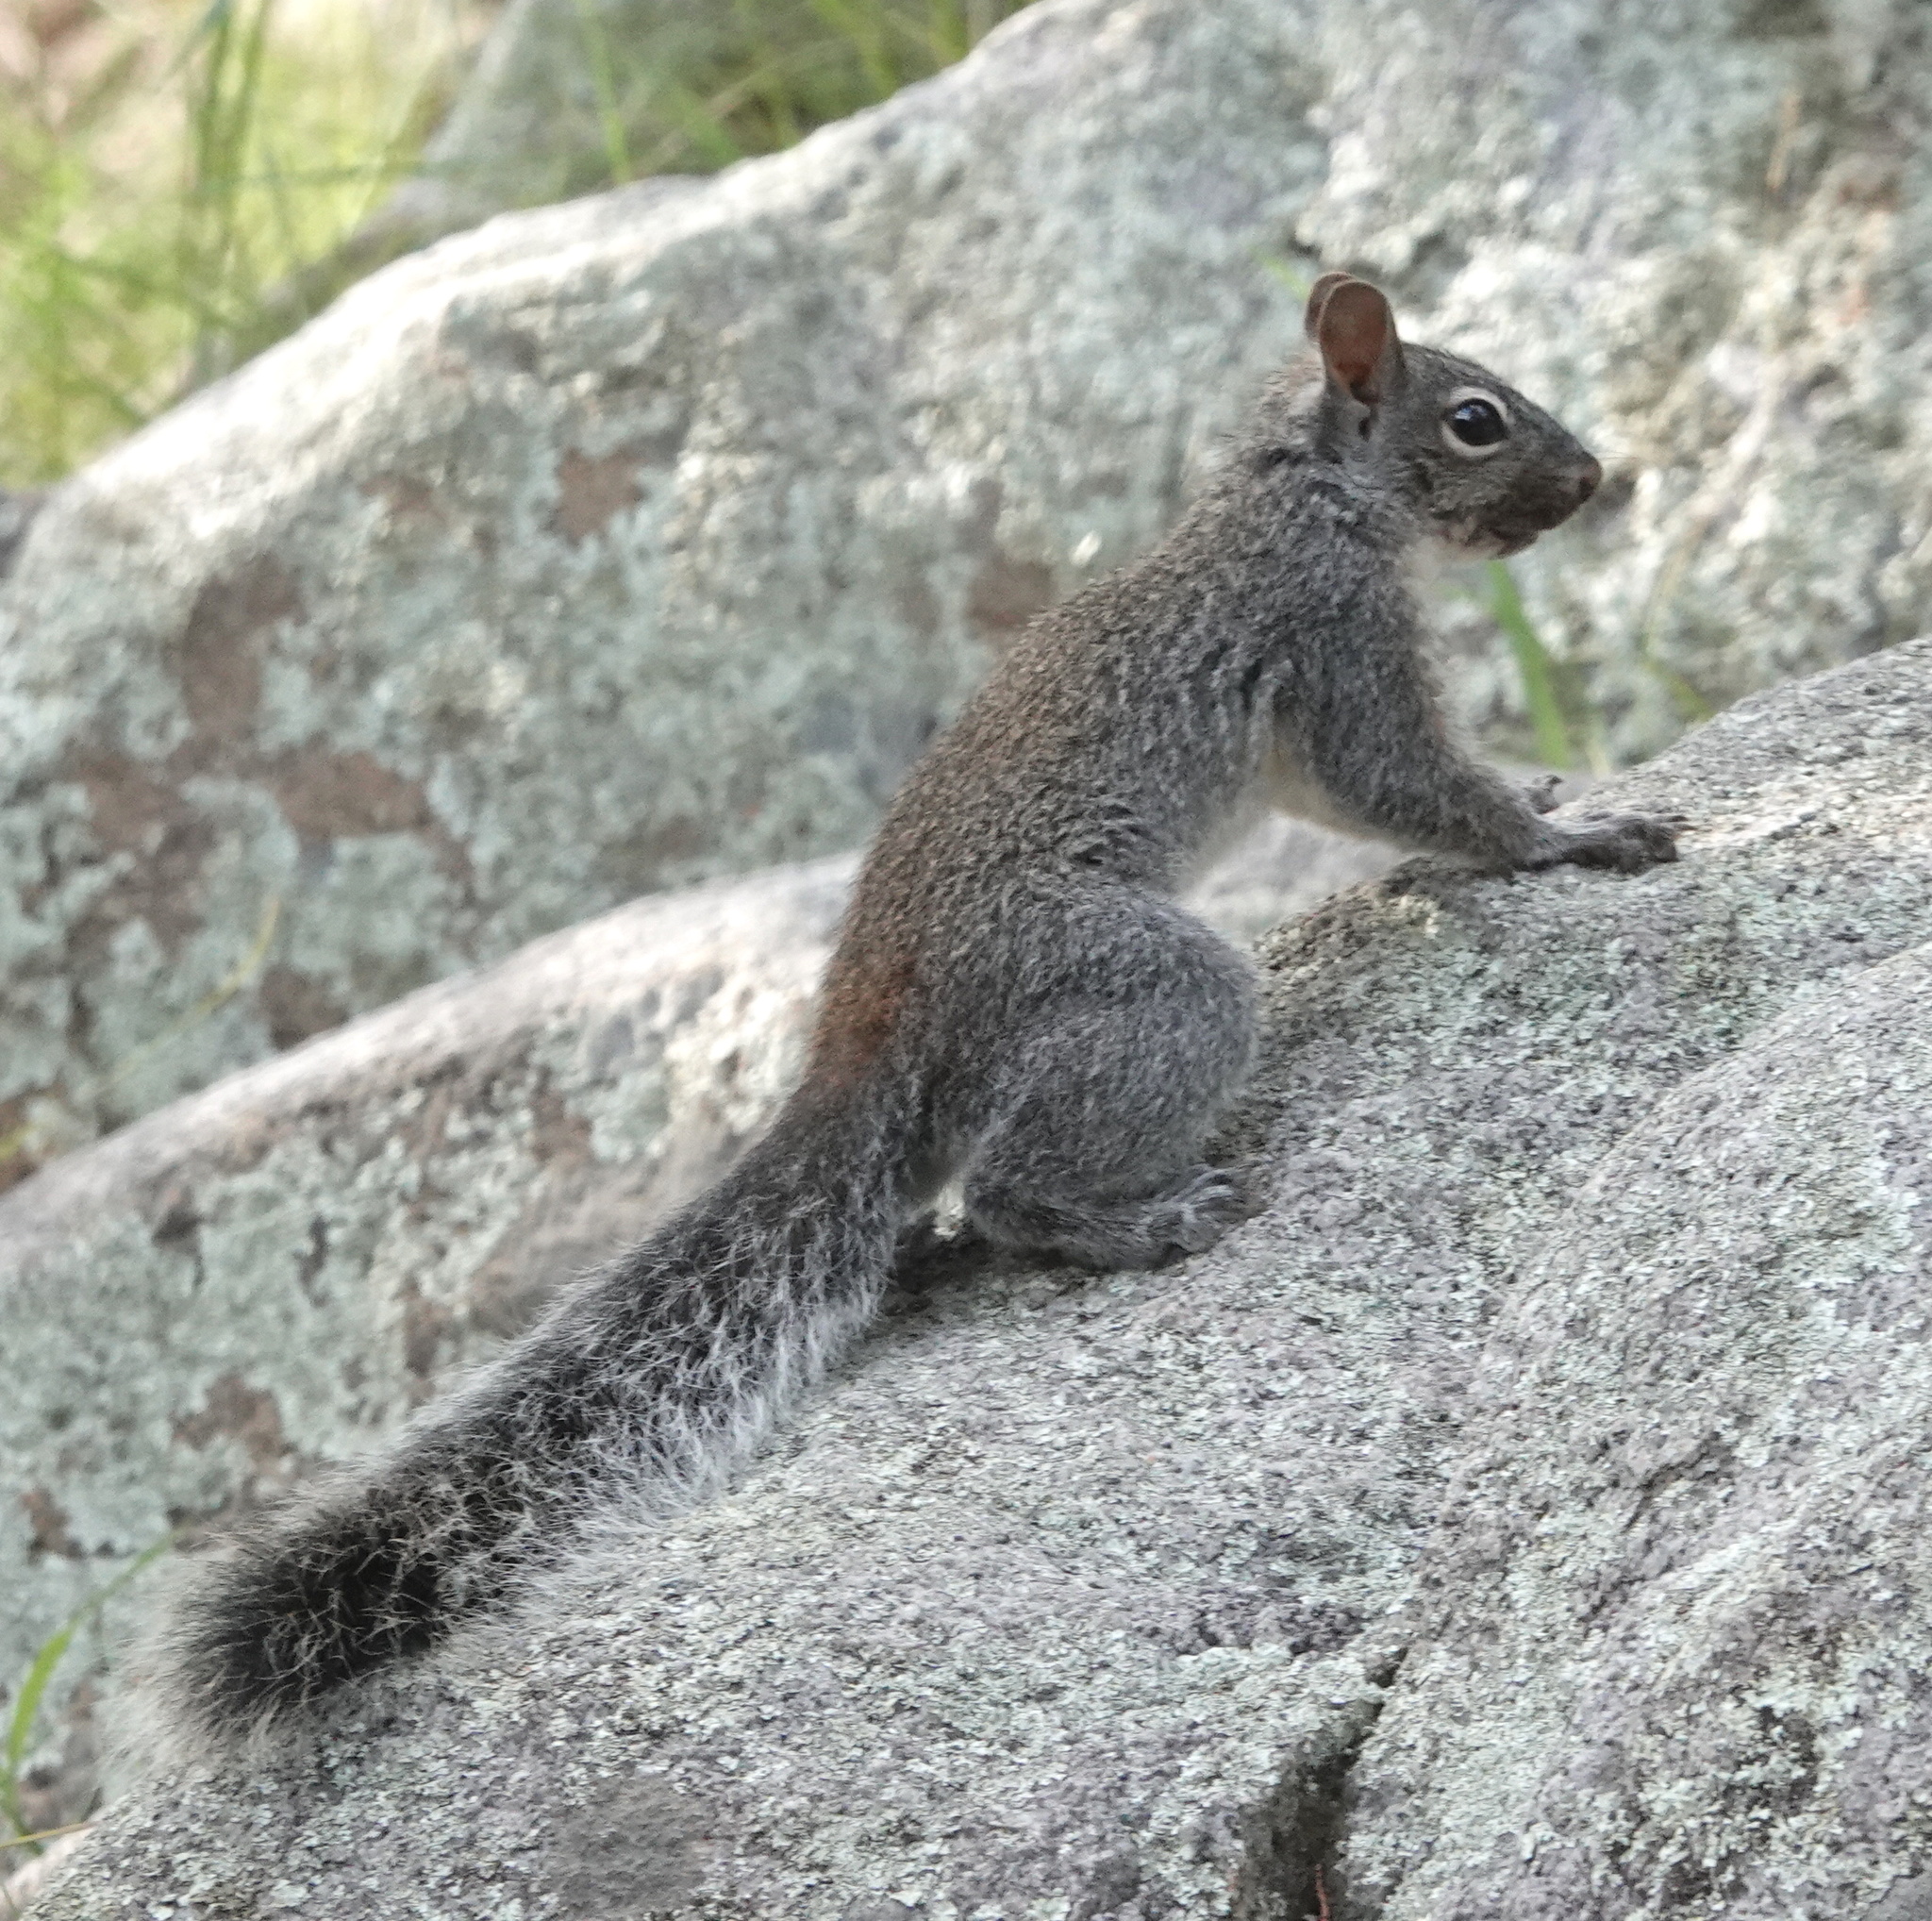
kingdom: Animalia
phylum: Chordata
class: Mammalia
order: Rodentia
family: Sciuridae
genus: Sciurus
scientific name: Sciurus arizonensis
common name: Arizona gray squirrel
